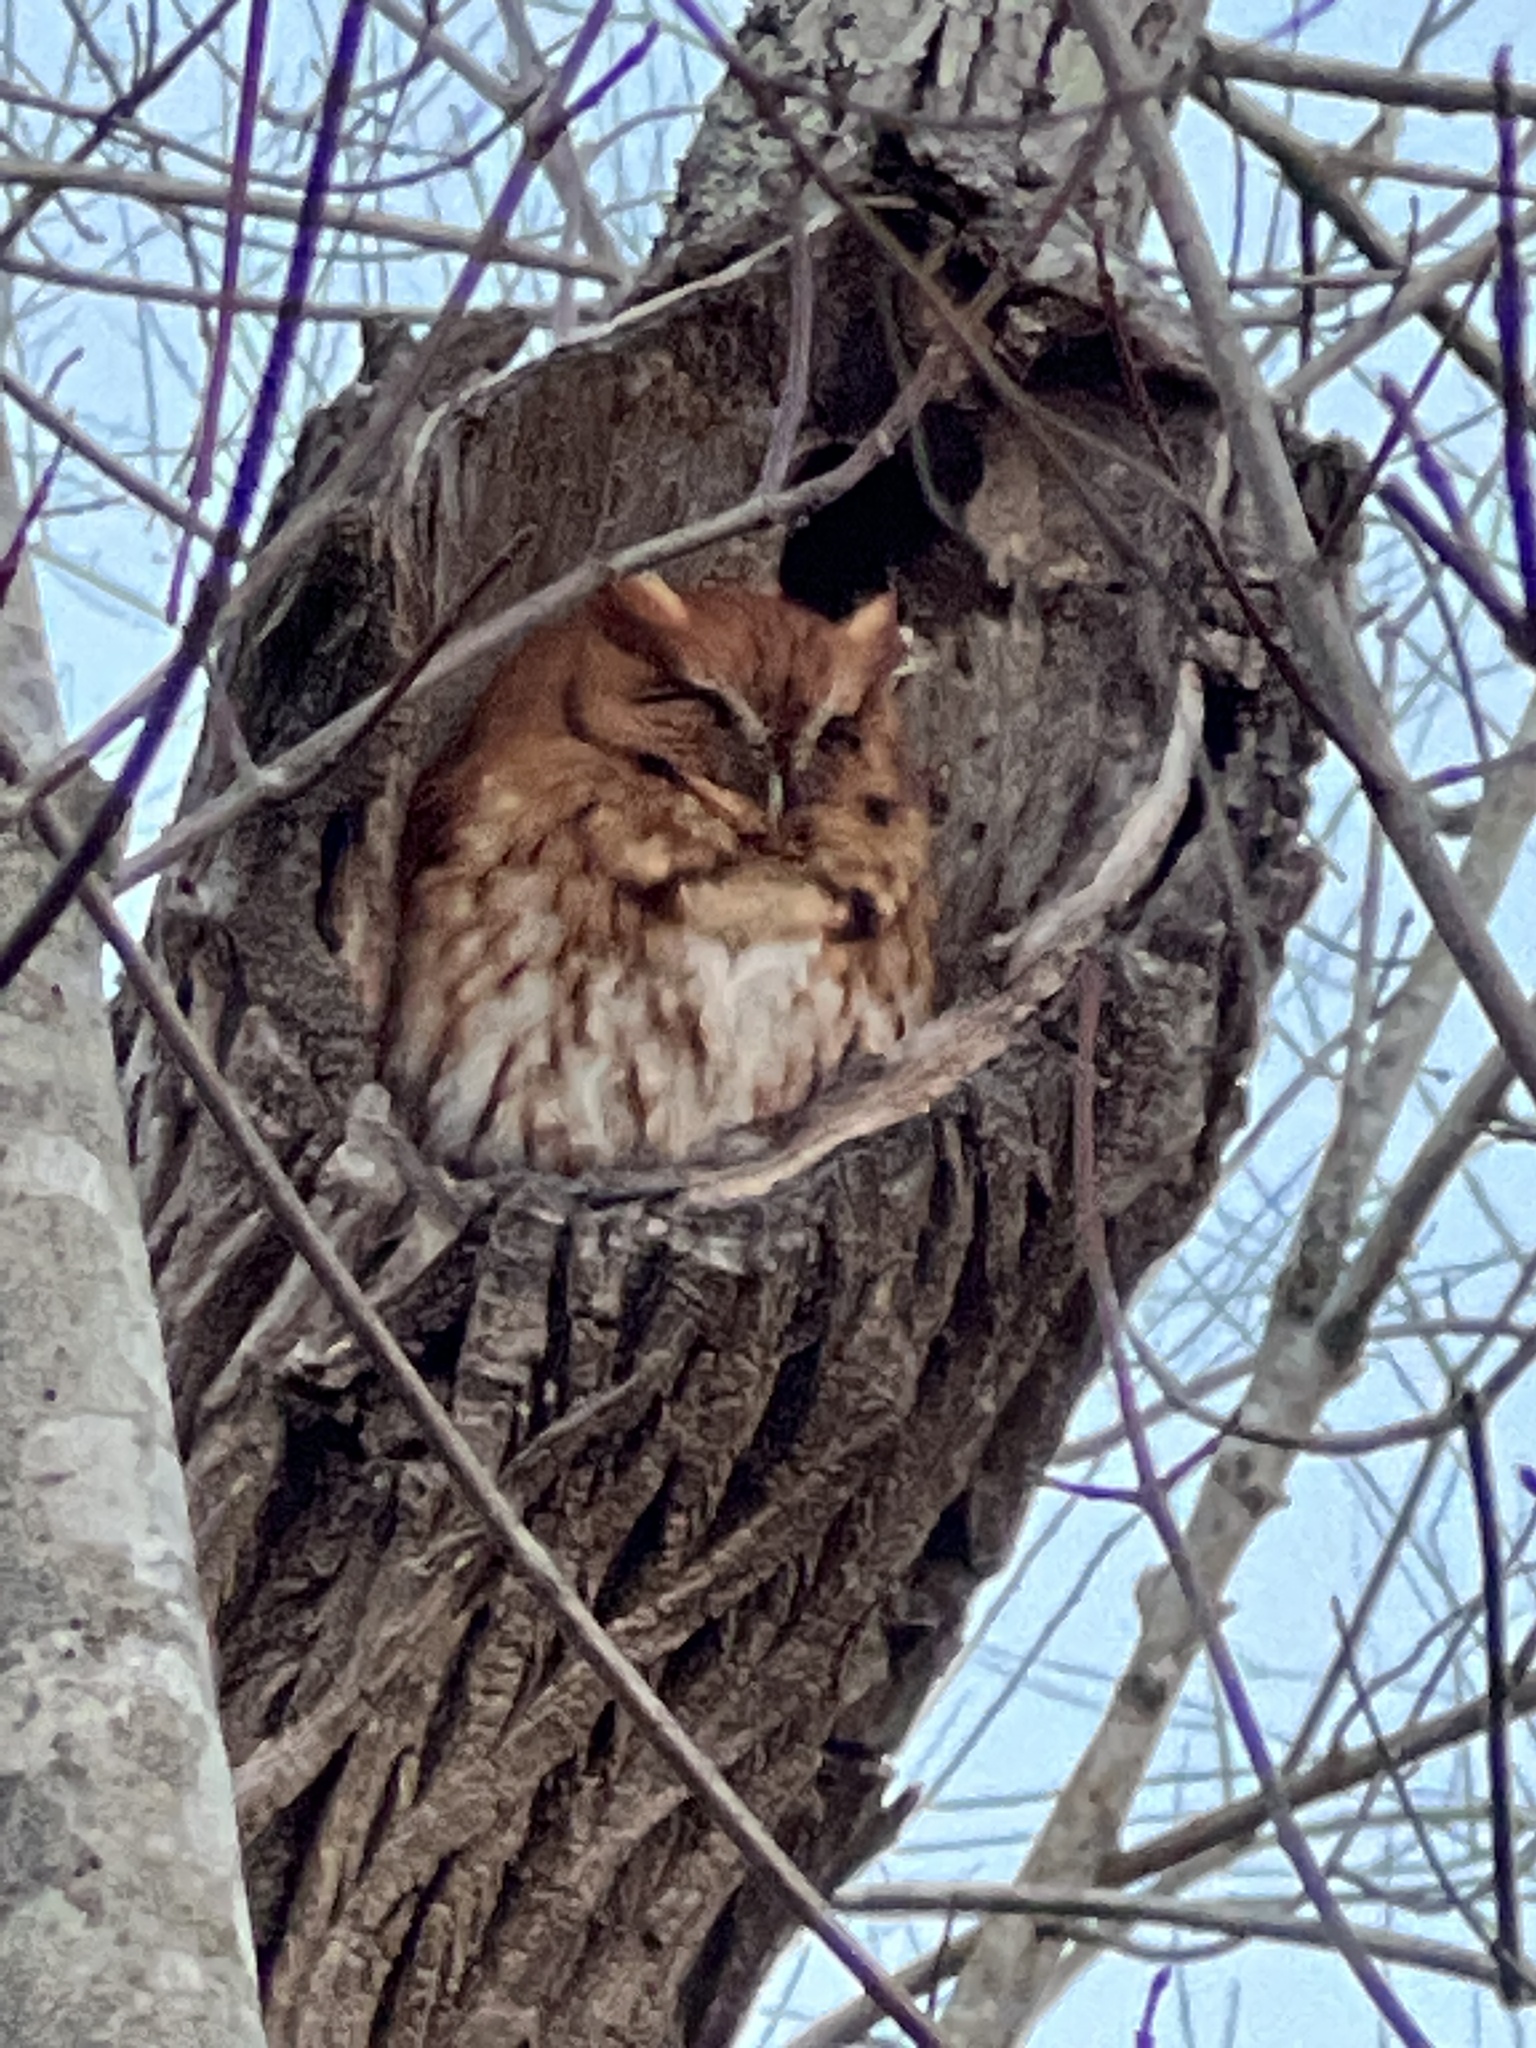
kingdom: Animalia
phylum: Chordata
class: Aves
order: Strigiformes
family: Strigidae
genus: Megascops
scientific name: Megascops asio
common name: Eastern screech-owl
